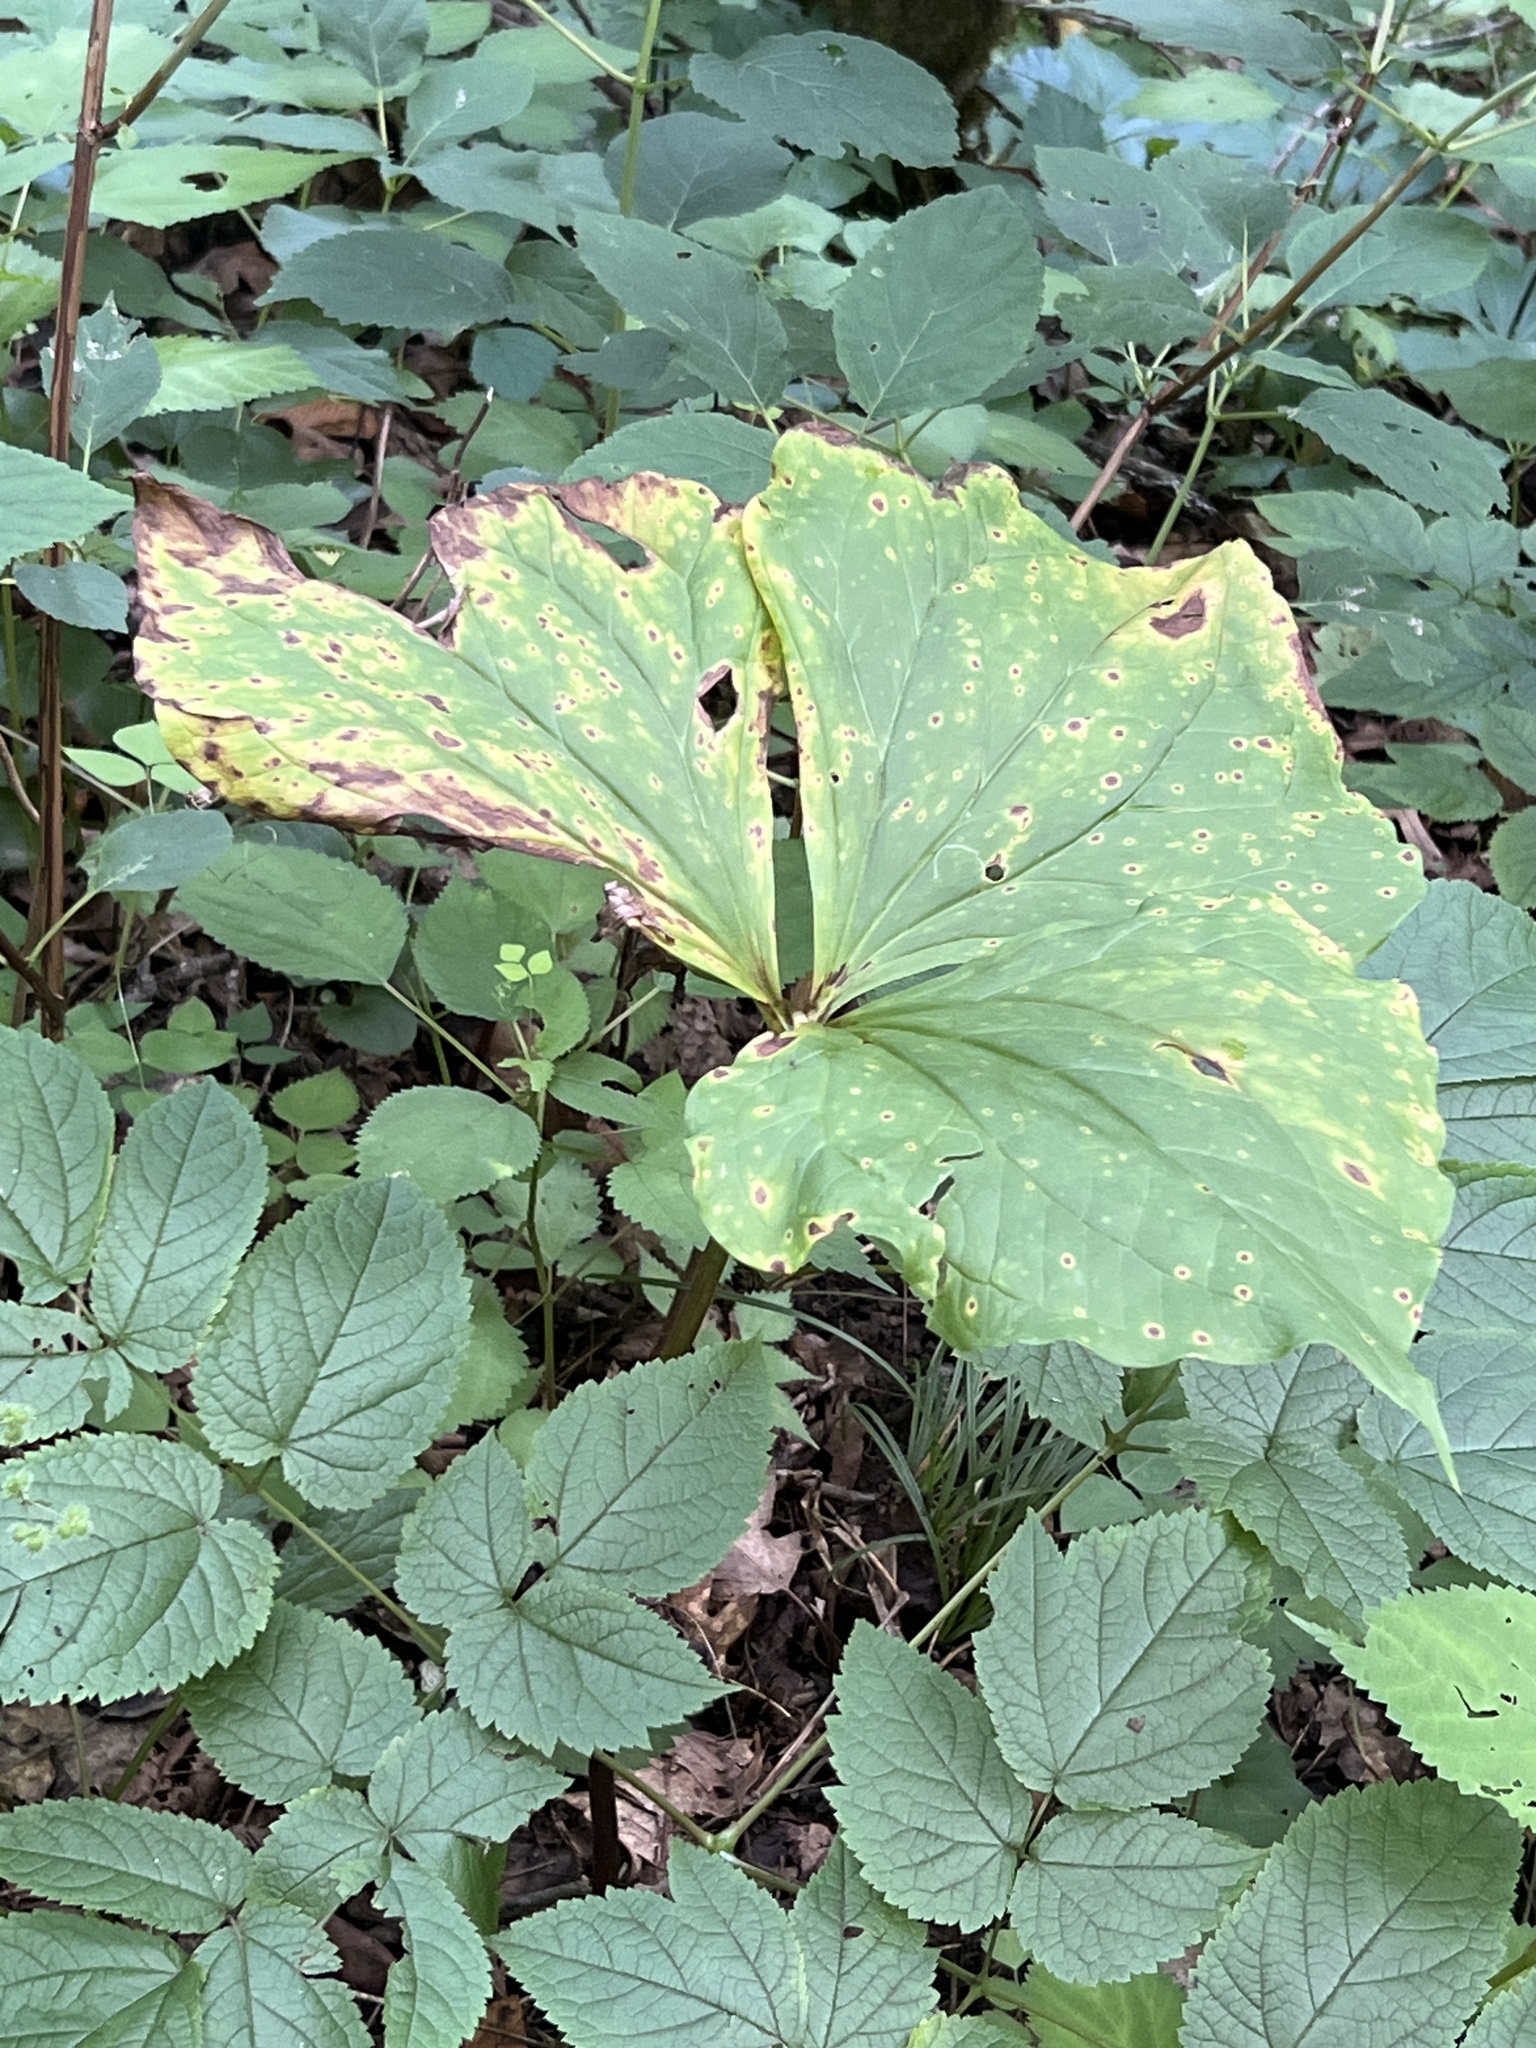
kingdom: Plantae
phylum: Tracheophyta
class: Liliopsida
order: Liliales
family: Melanthiaceae
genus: Trillium
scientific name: Trillium vaseyi
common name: Sweet trillium
